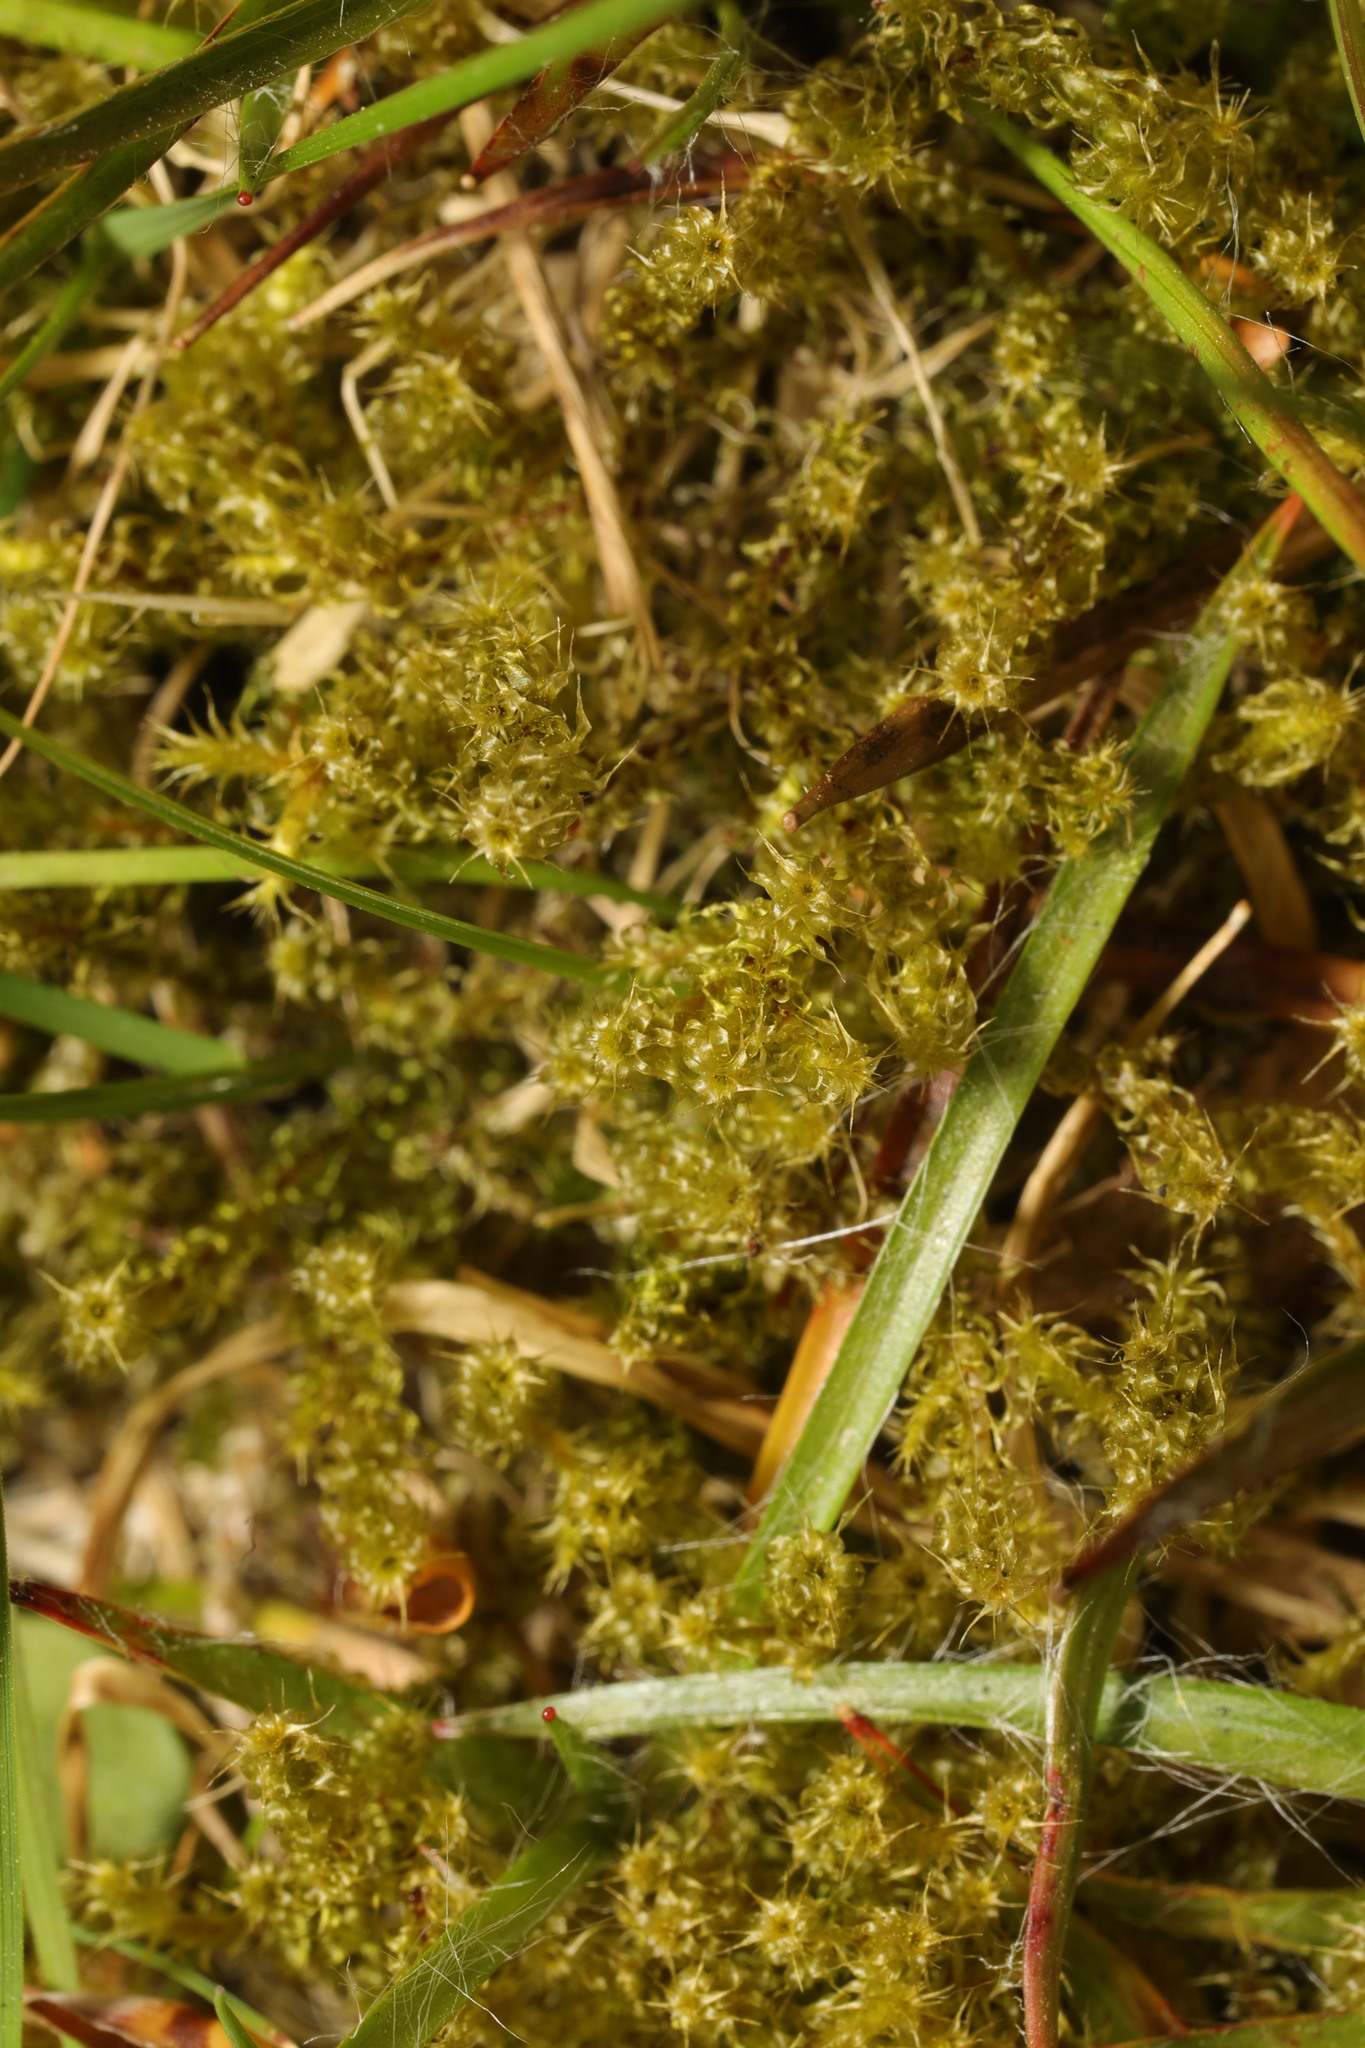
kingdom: Plantae
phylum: Bryophyta
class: Bryopsida
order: Hypnales
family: Hylocomiaceae
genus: Rhytidiadelphus
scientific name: Rhytidiadelphus squarrosus
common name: Springy turf-moss
